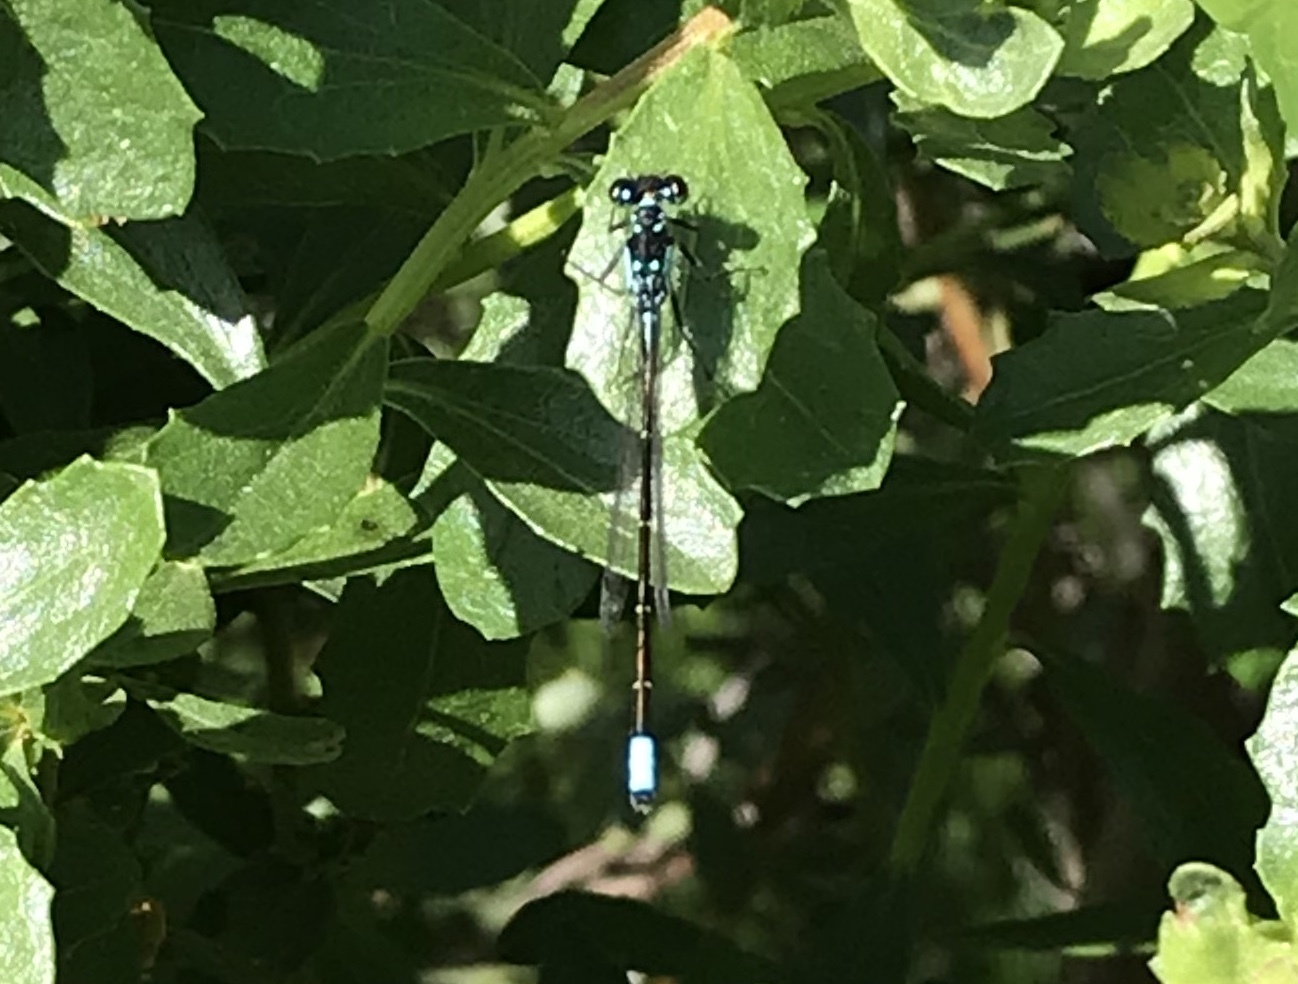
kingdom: Animalia
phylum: Arthropoda
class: Insecta
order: Odonata
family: Coenagrionidae
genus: Ischnura
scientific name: Ischnura cervula
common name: Pacific forktail
